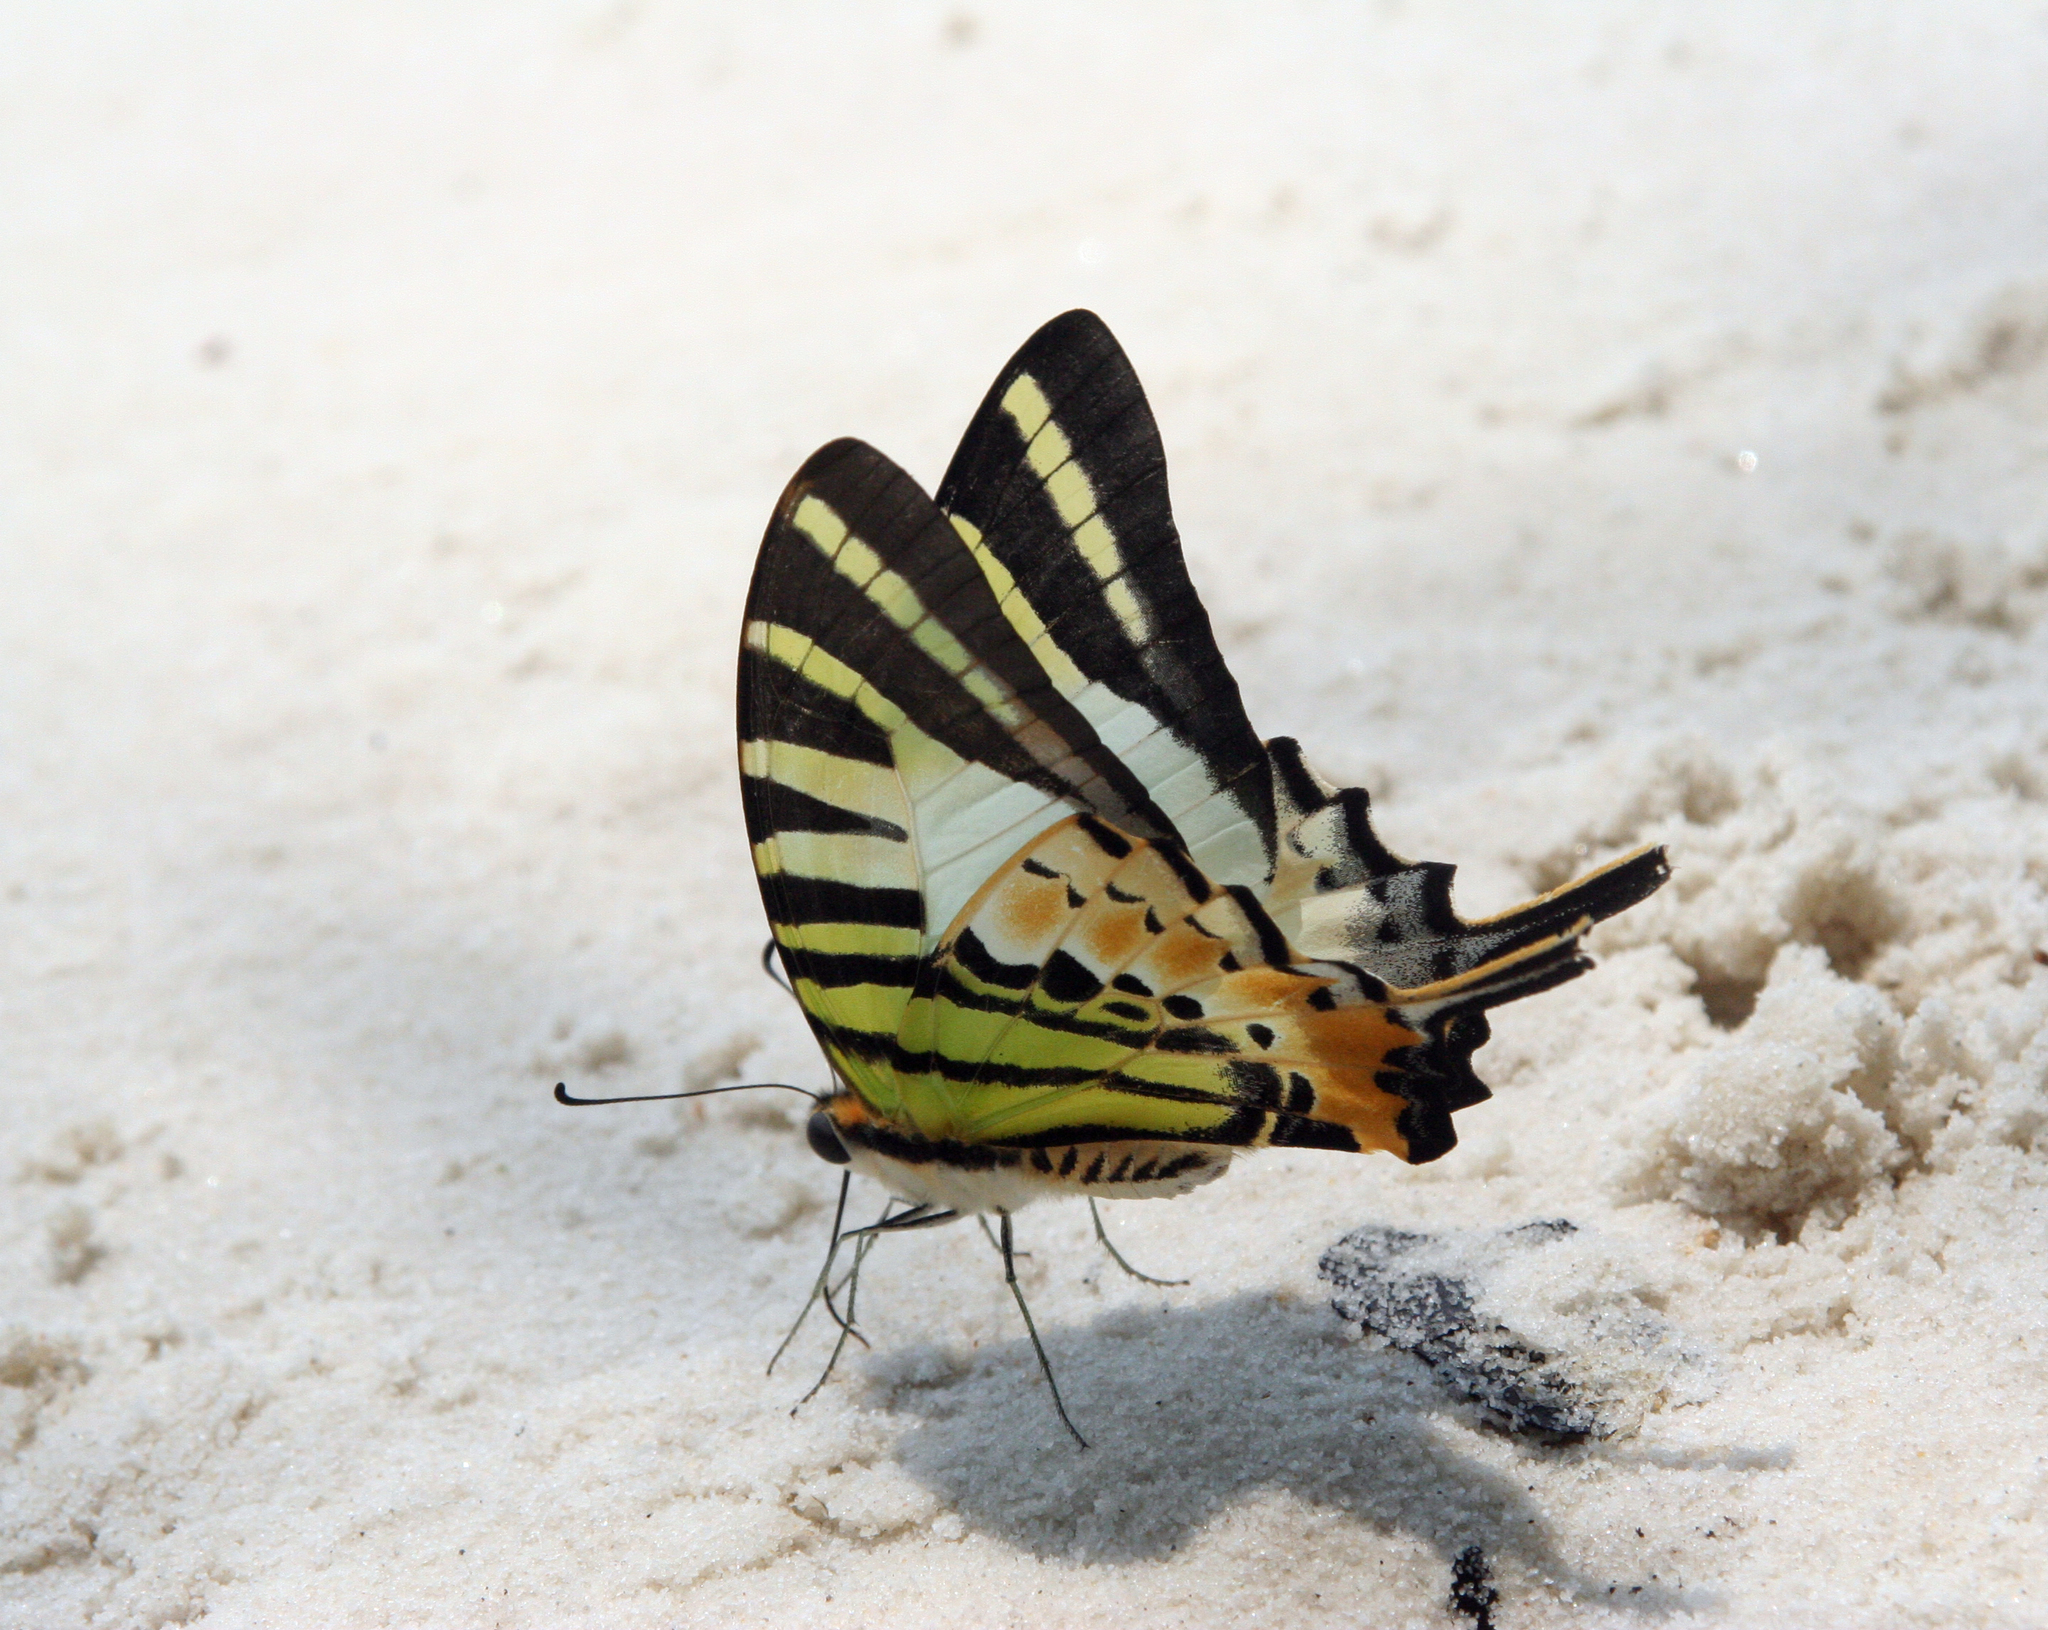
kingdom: Animalia
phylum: Arthropoda
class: Insecta
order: Lepidoptera
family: Papilionidae
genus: Graphium
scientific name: Graphium antiphates
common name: Fivebar swordtail
